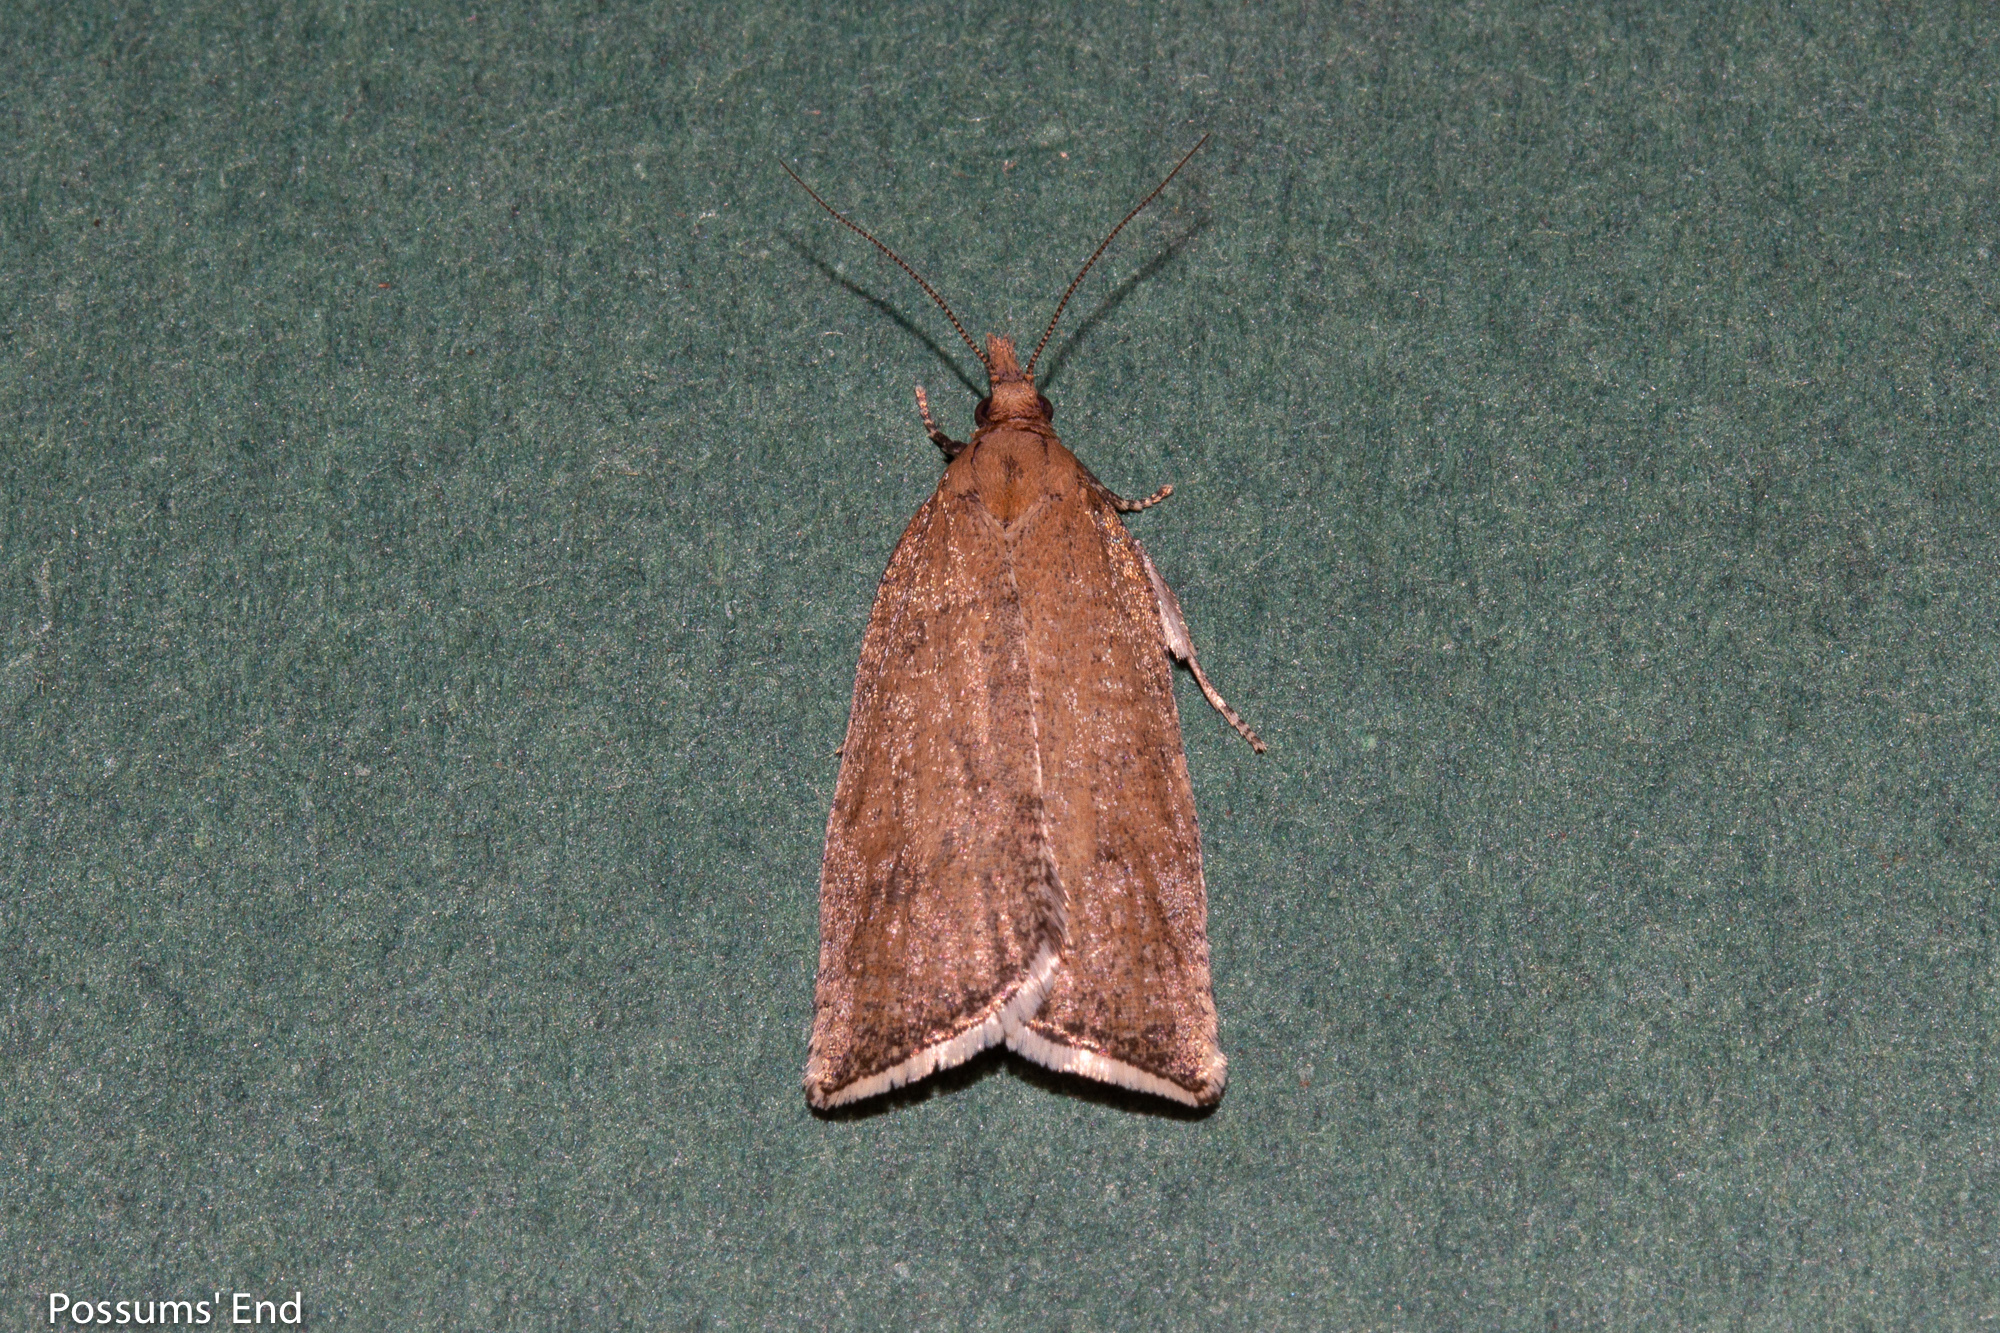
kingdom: Animalia
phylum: Arthropoda
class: Insecta
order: Lepidoptera
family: Tortricidae
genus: Catamacta
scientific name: Catamacta lotinana
